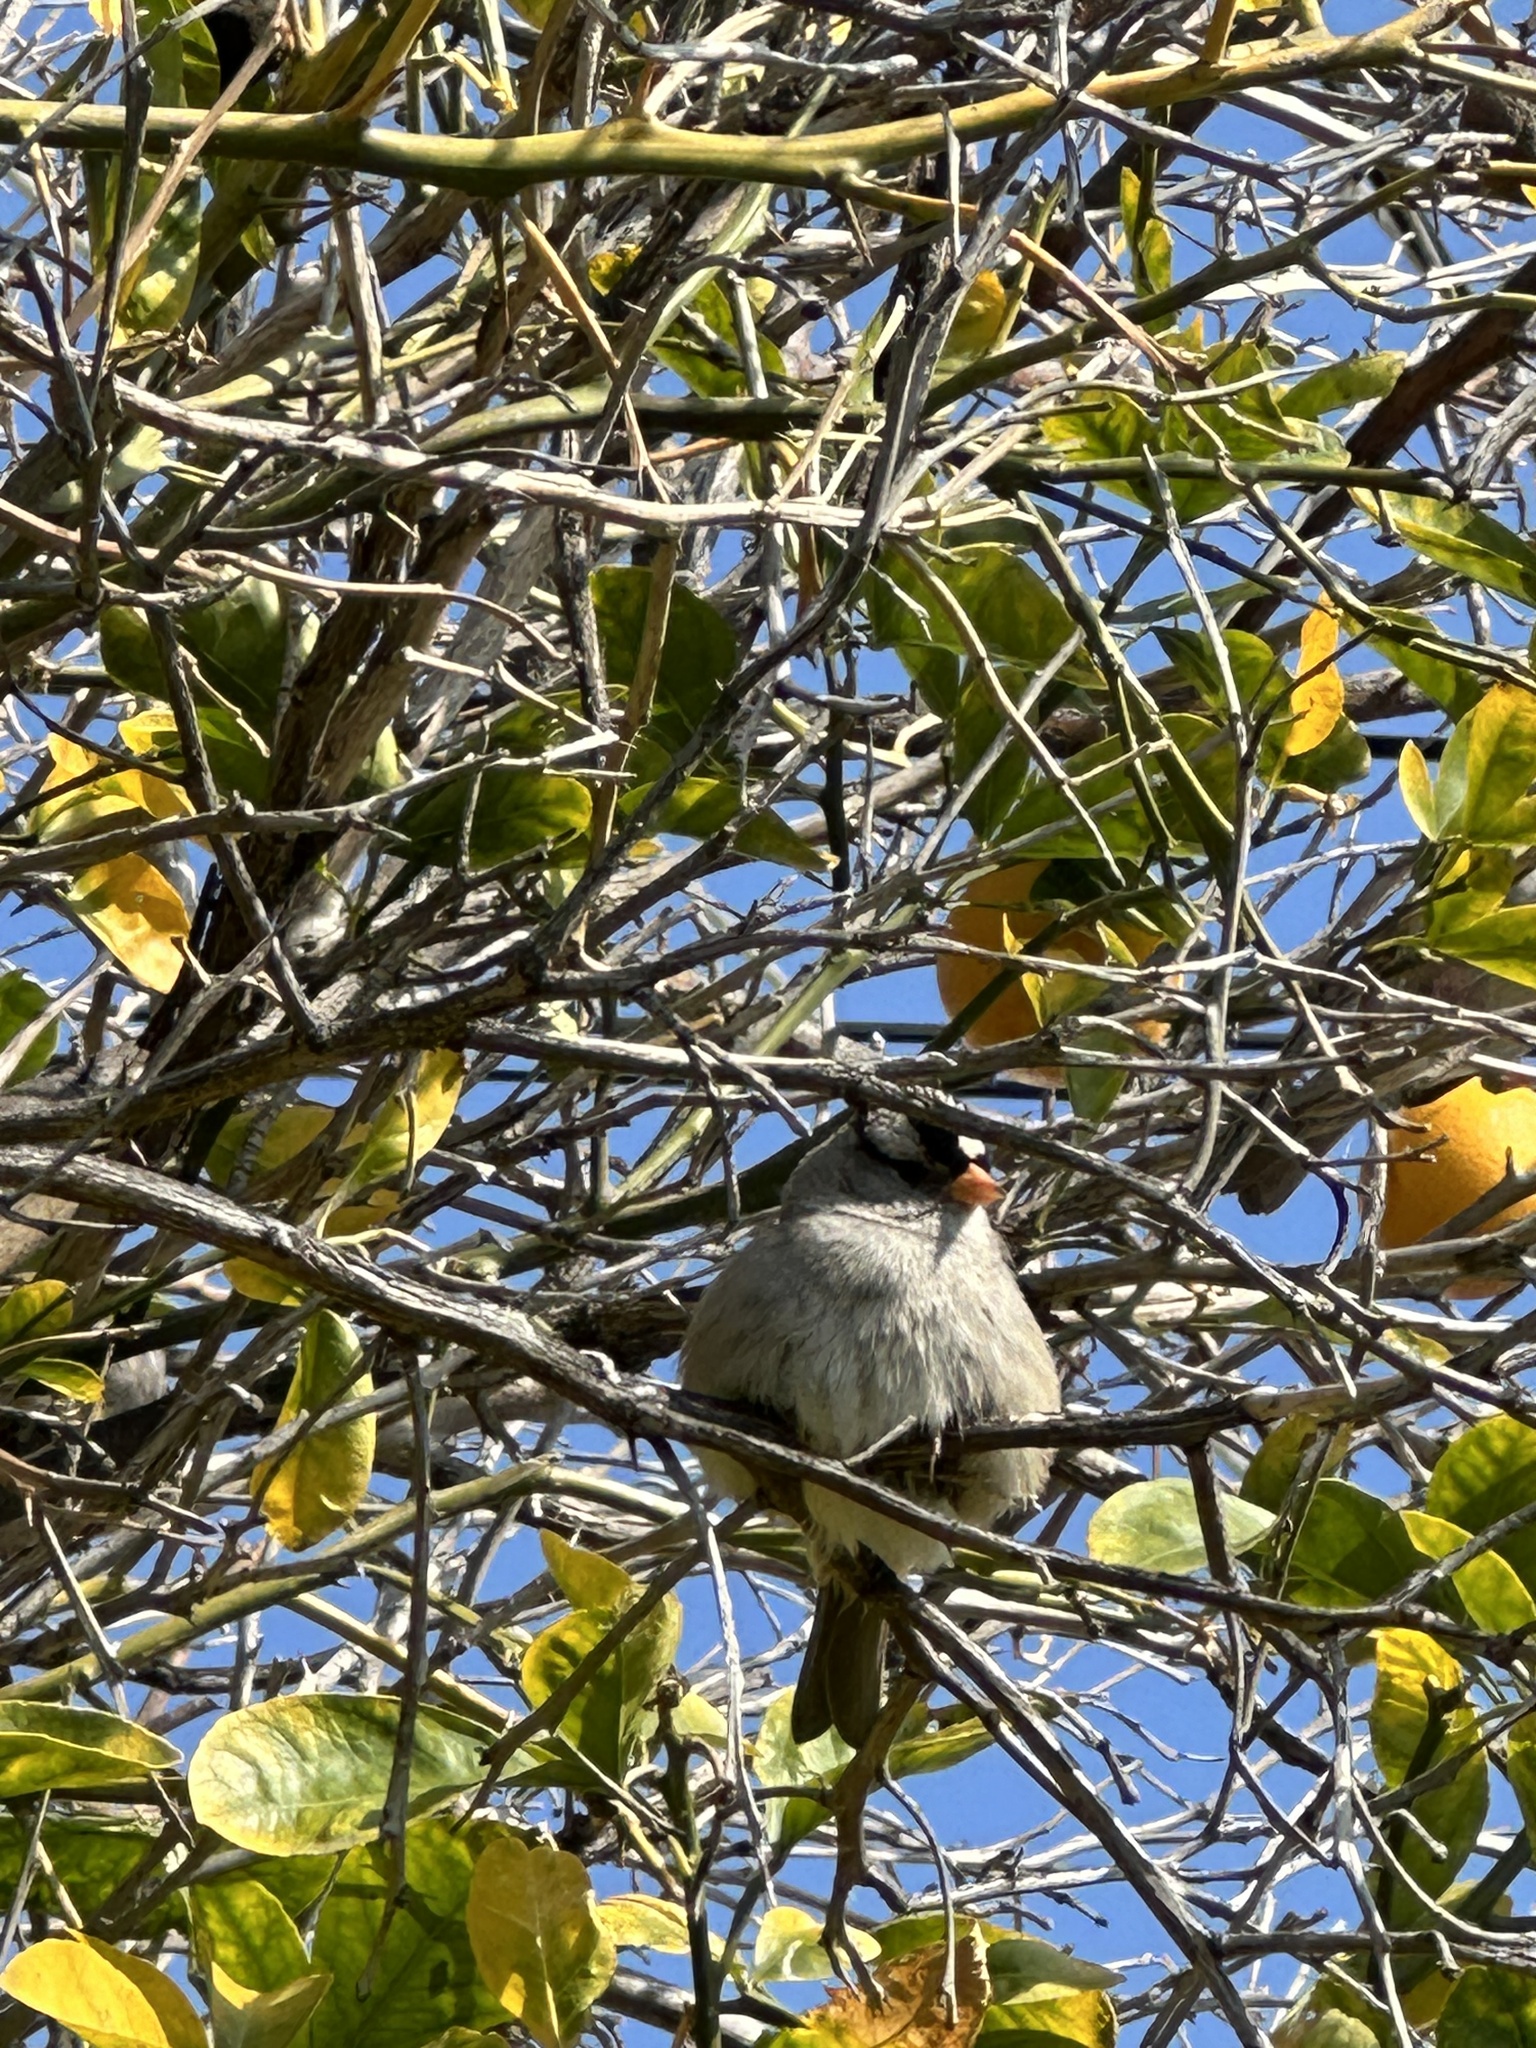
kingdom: Animalia
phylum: Chordata
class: Aves
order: Passeriformes
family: Passerellidae
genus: Zonotrichia
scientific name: Zonotrichia leucophrys
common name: White-crowned sparrow
